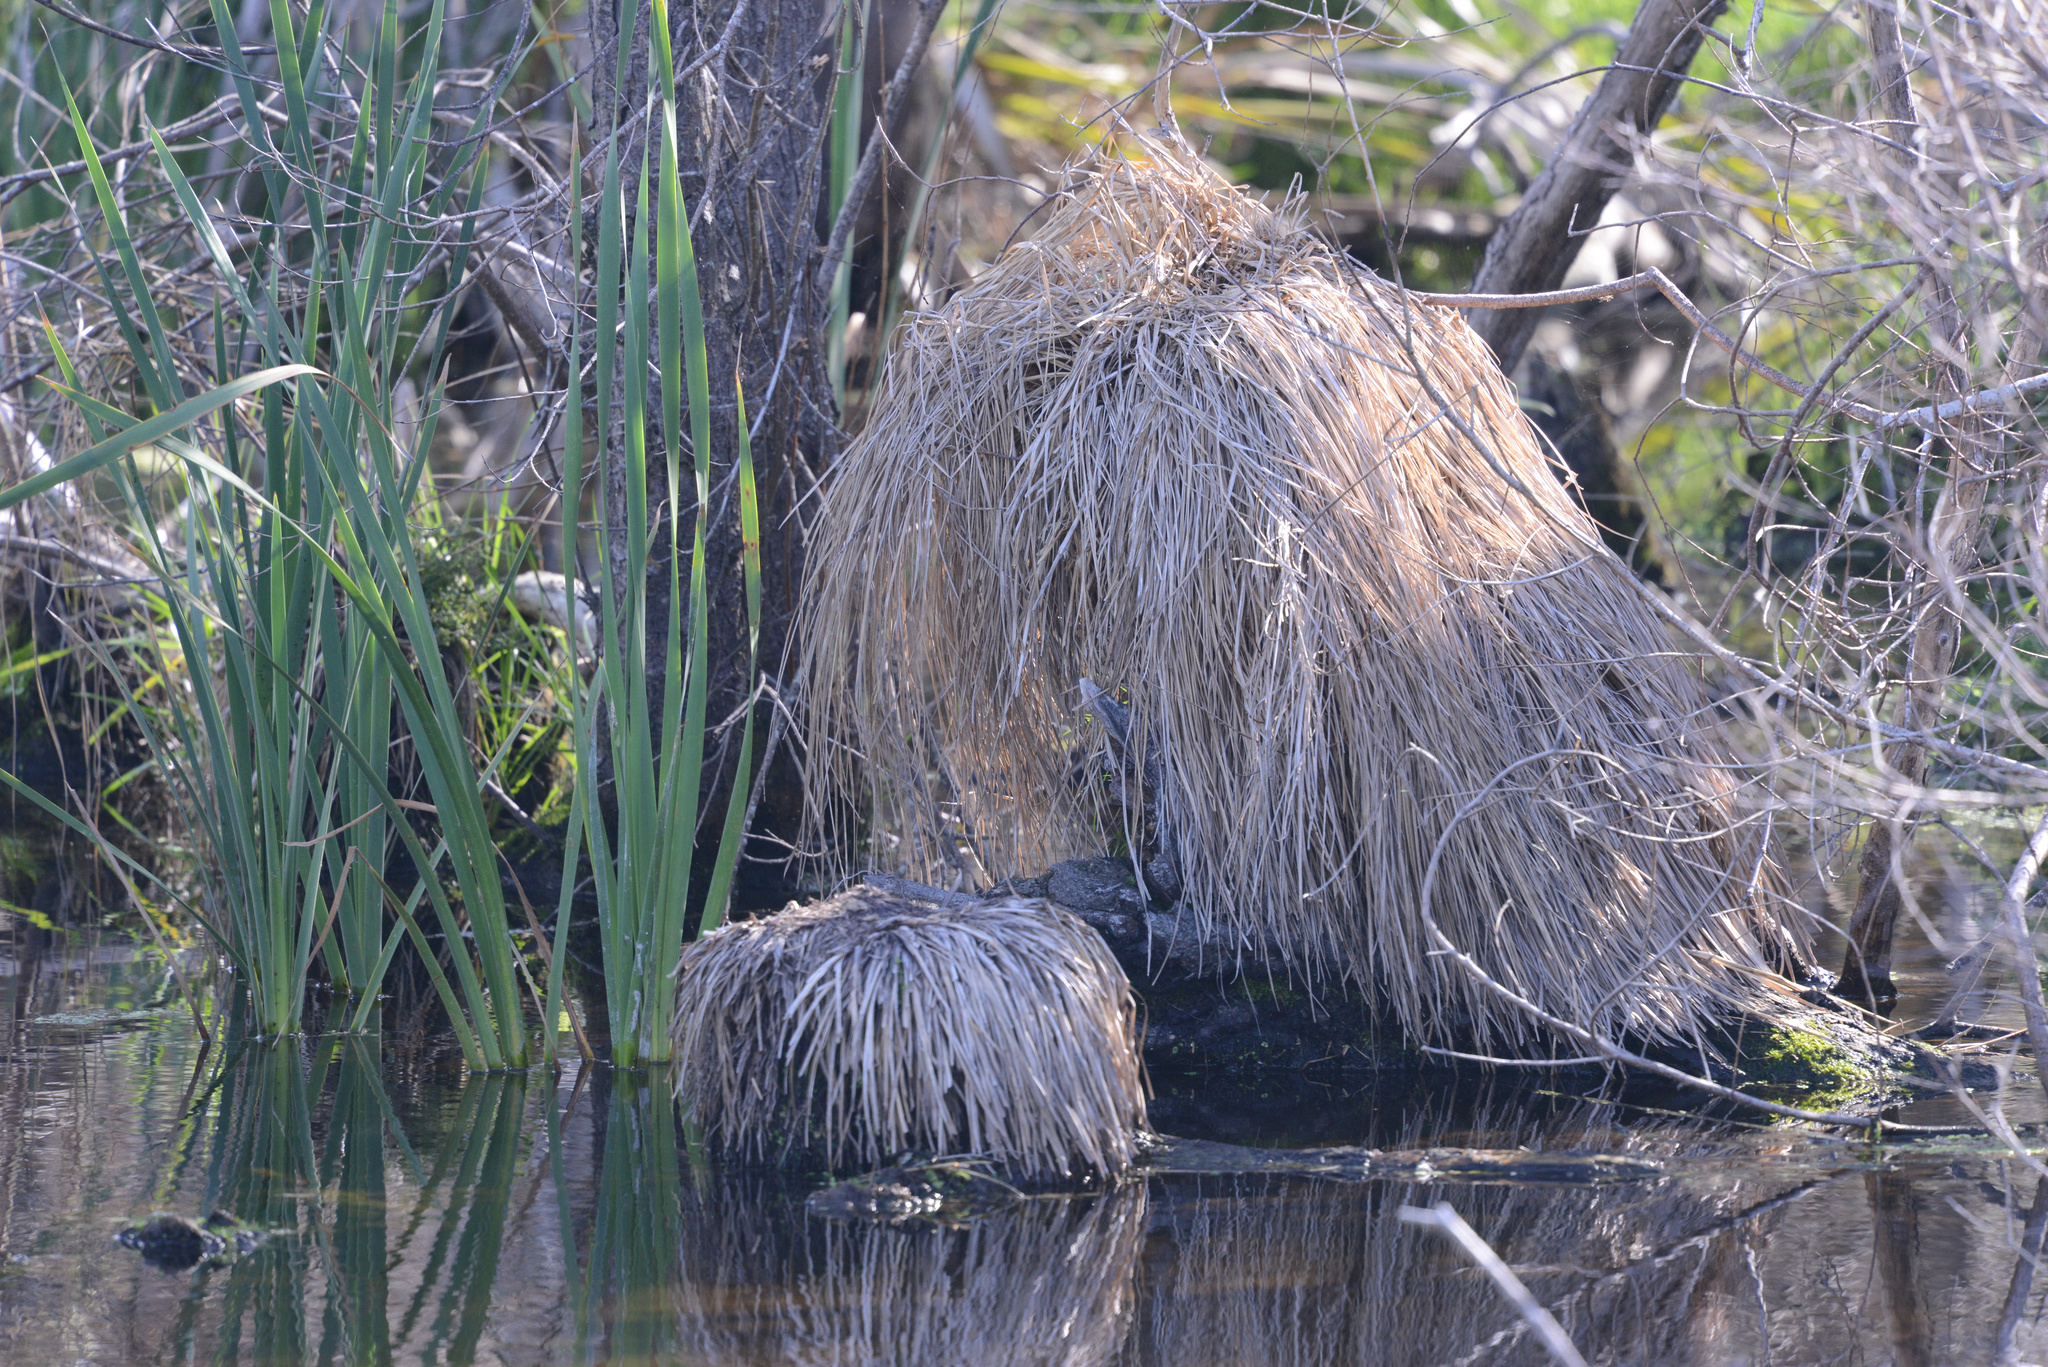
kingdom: Plantae
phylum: Tracheophyta
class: Liliopsida
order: Poales
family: Cyperaceae
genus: Carex
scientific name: Carex secta
